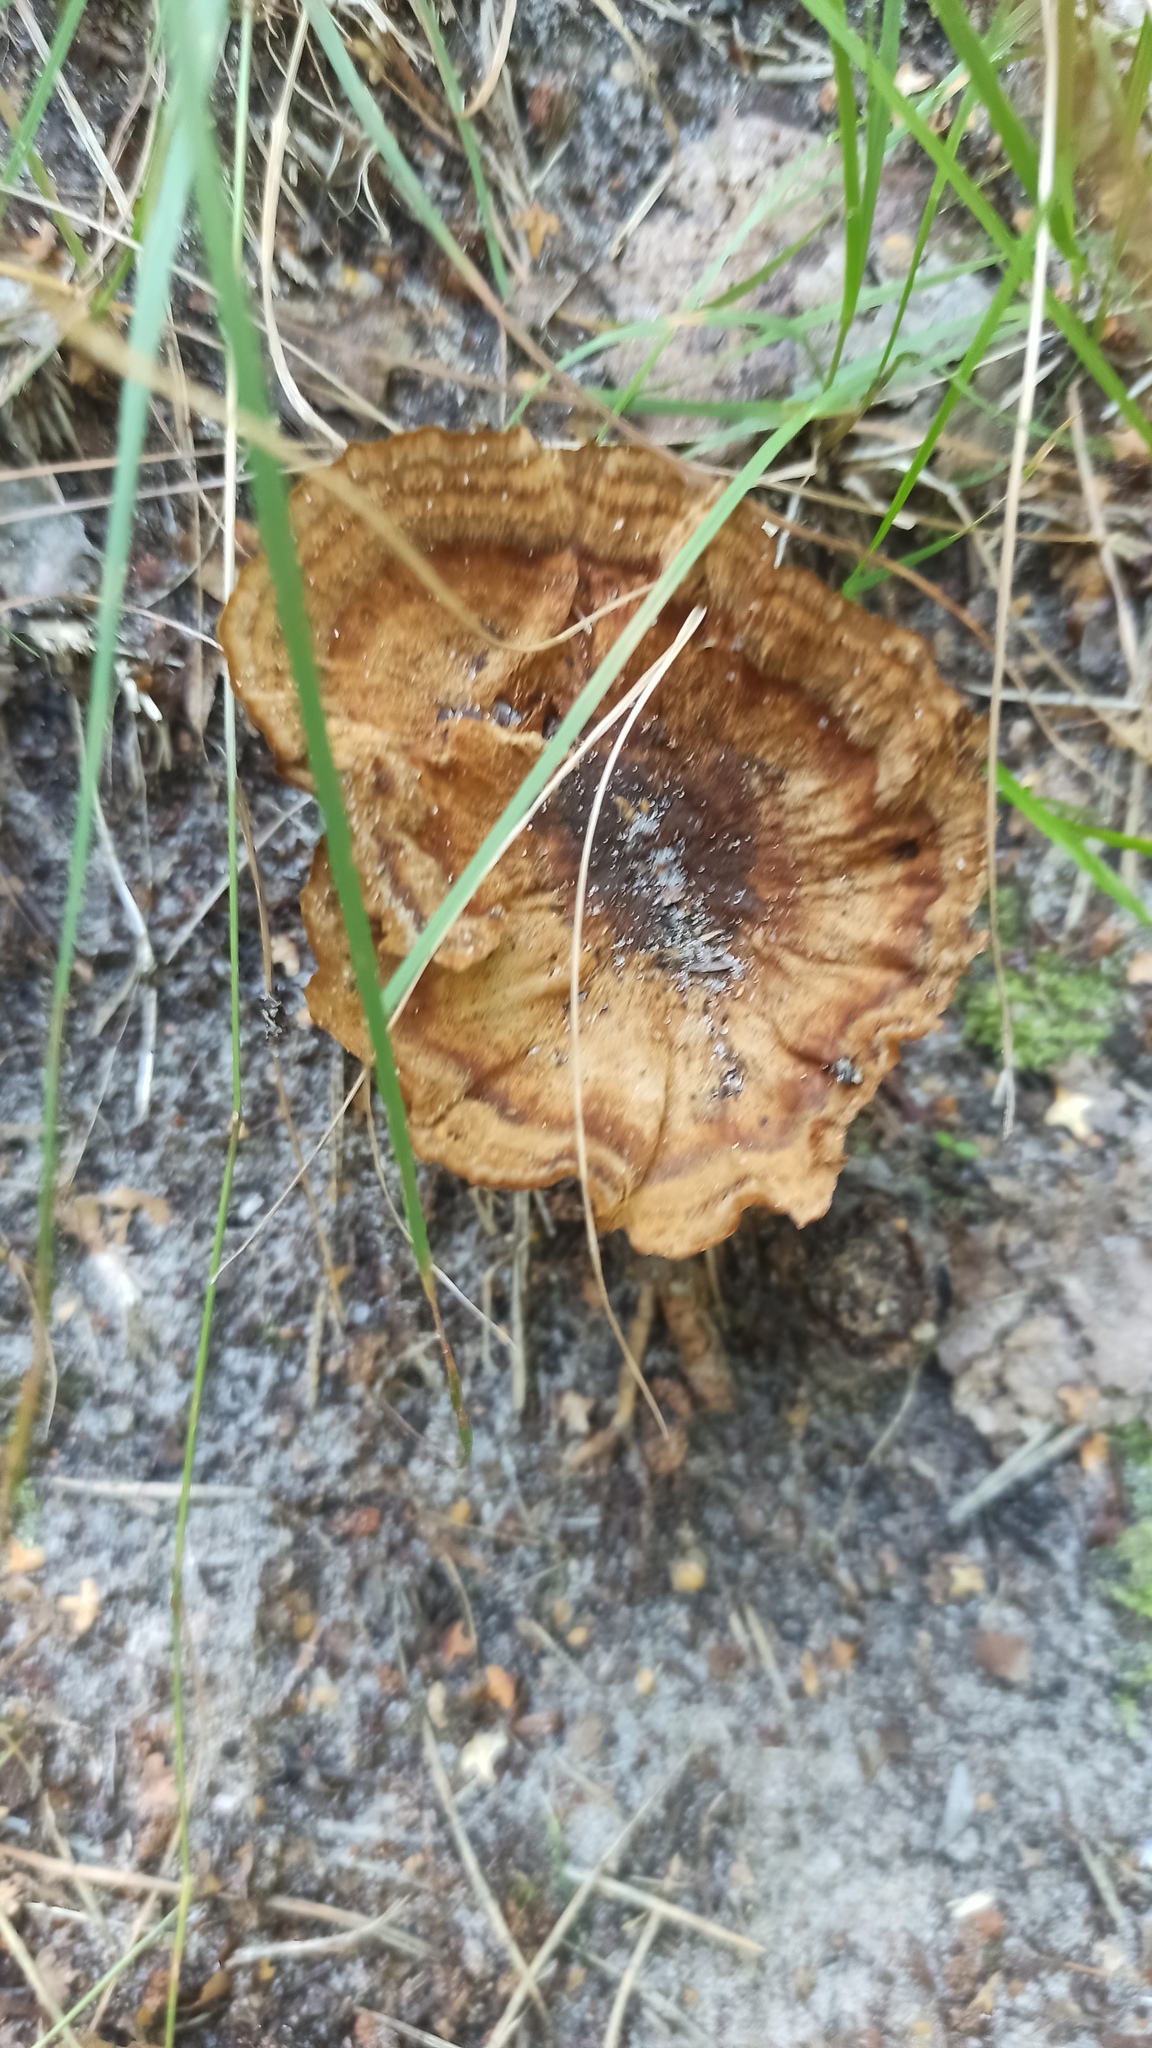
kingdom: Fungi
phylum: Basidiomycota
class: Agaricomycetes
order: Hymenochaetales
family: Hymenochaetaceae
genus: Coltricia
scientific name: Coltricia perennis
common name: Tiger's eye
